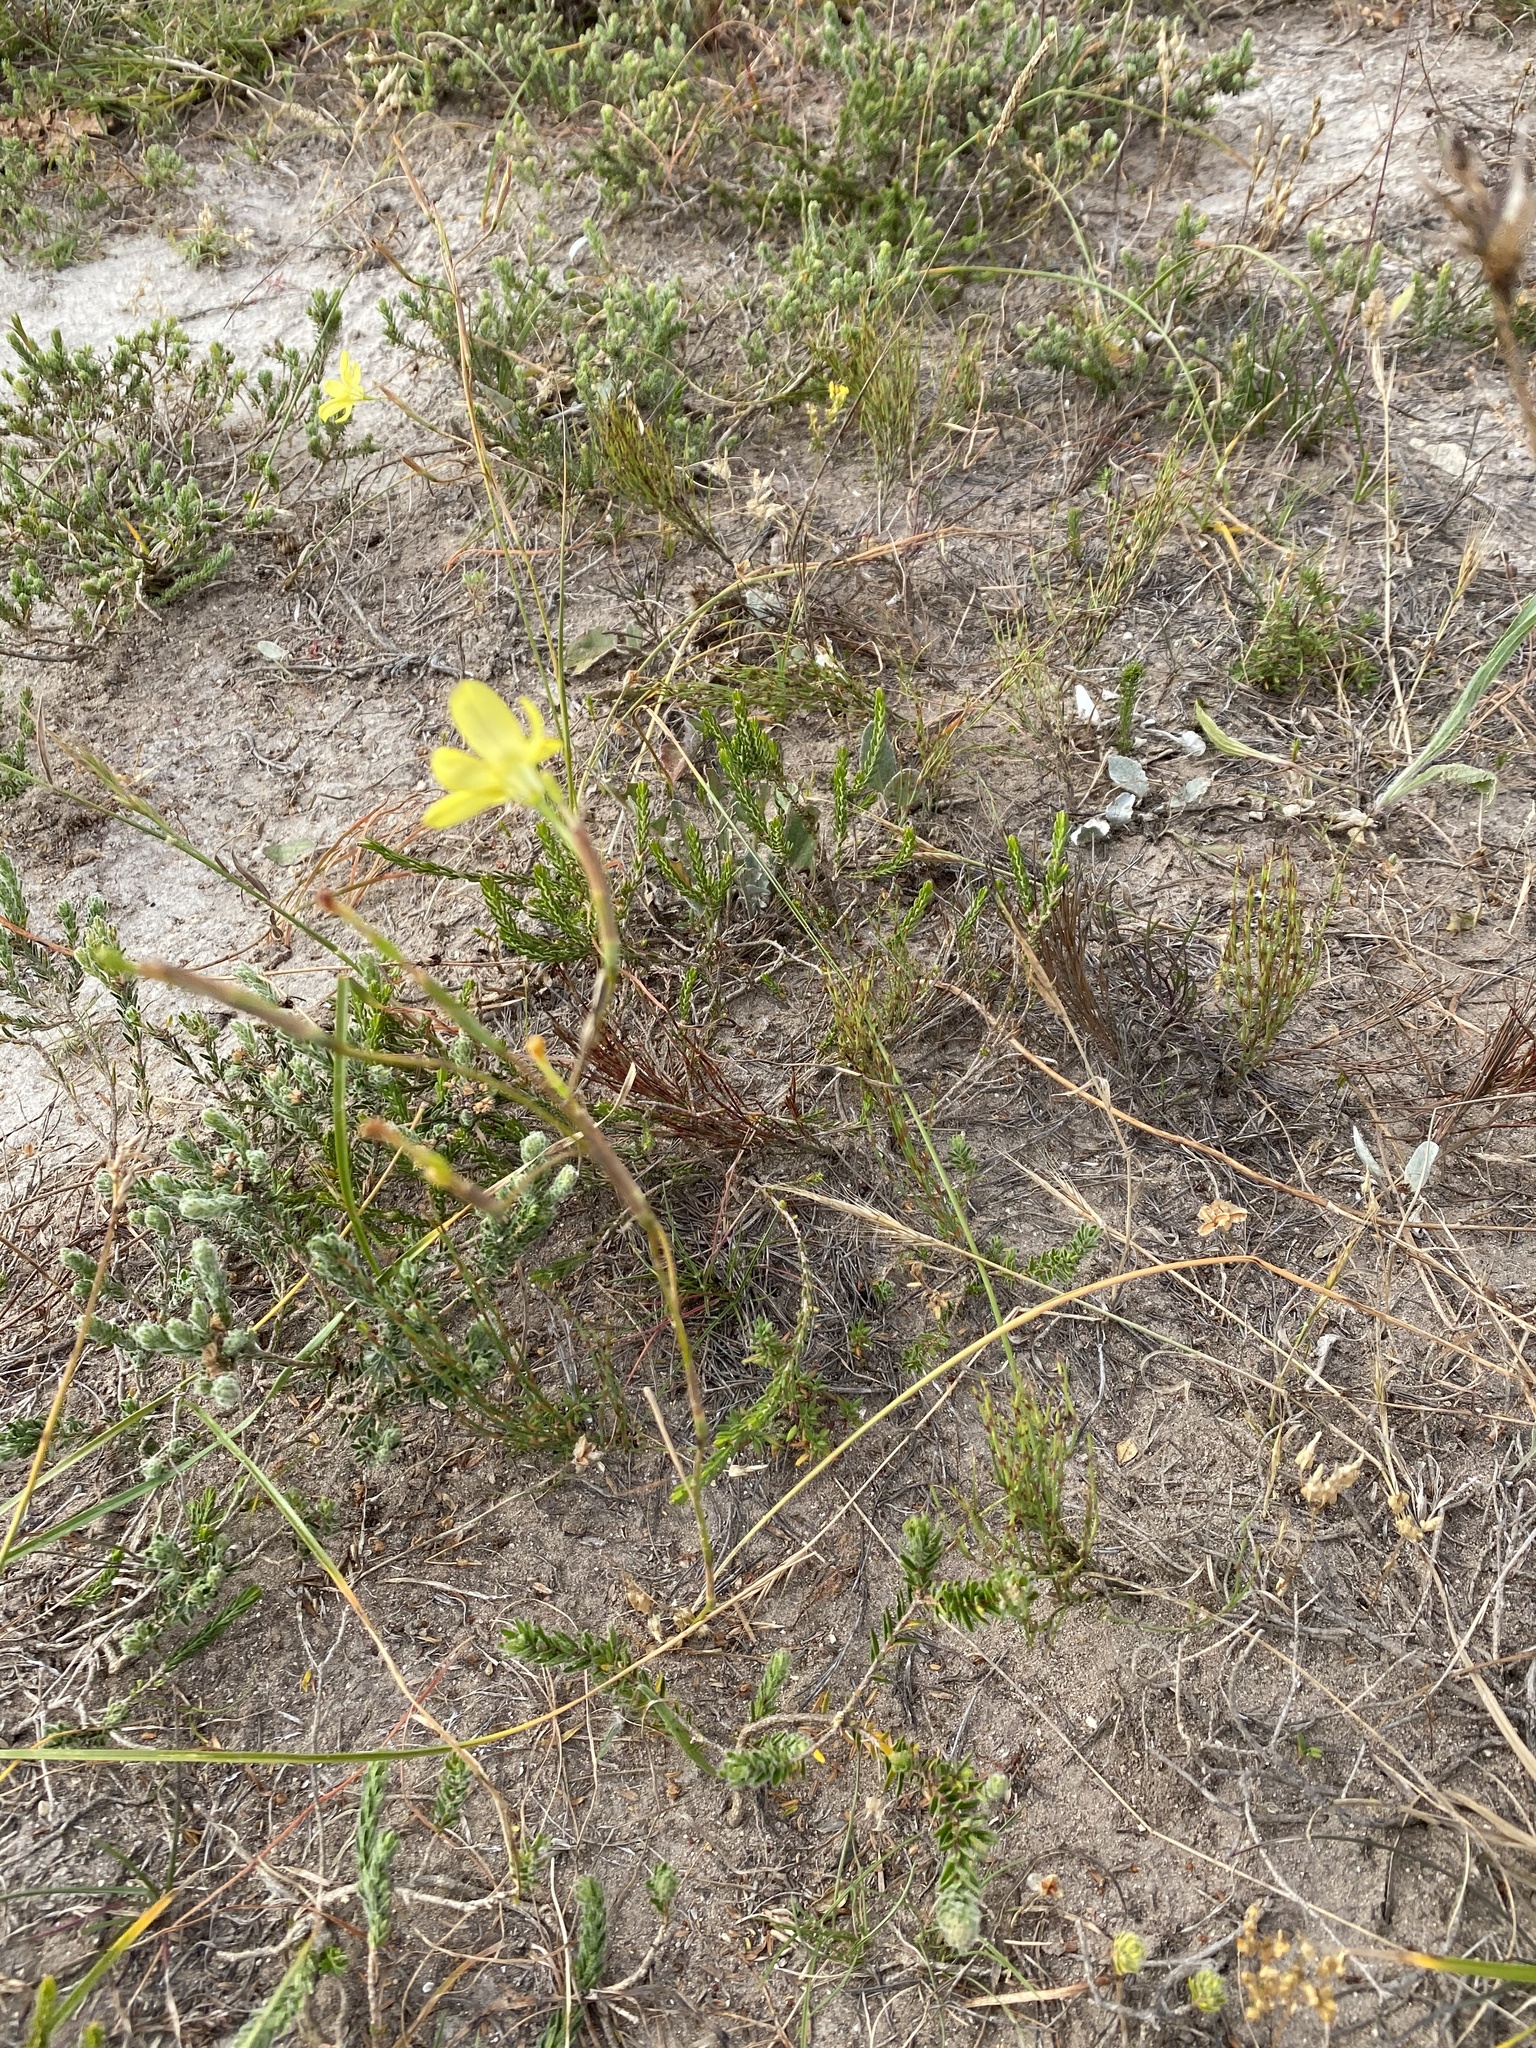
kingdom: Plantae
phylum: Tracheophyta
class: Liliopsida
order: Asparagales
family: Iridaceae
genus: Moraea
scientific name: Moraea elsiae
